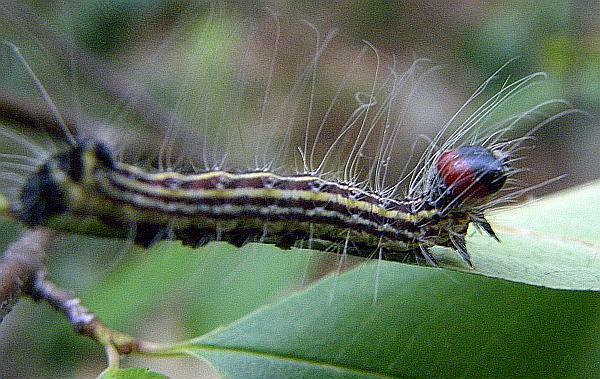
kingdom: Animalia
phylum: Arthropoda
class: Insecta
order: Lepidoptera
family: Noctuidae
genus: Acronicta
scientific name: Acronicta radcliffei
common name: Radcliffe's dagger
